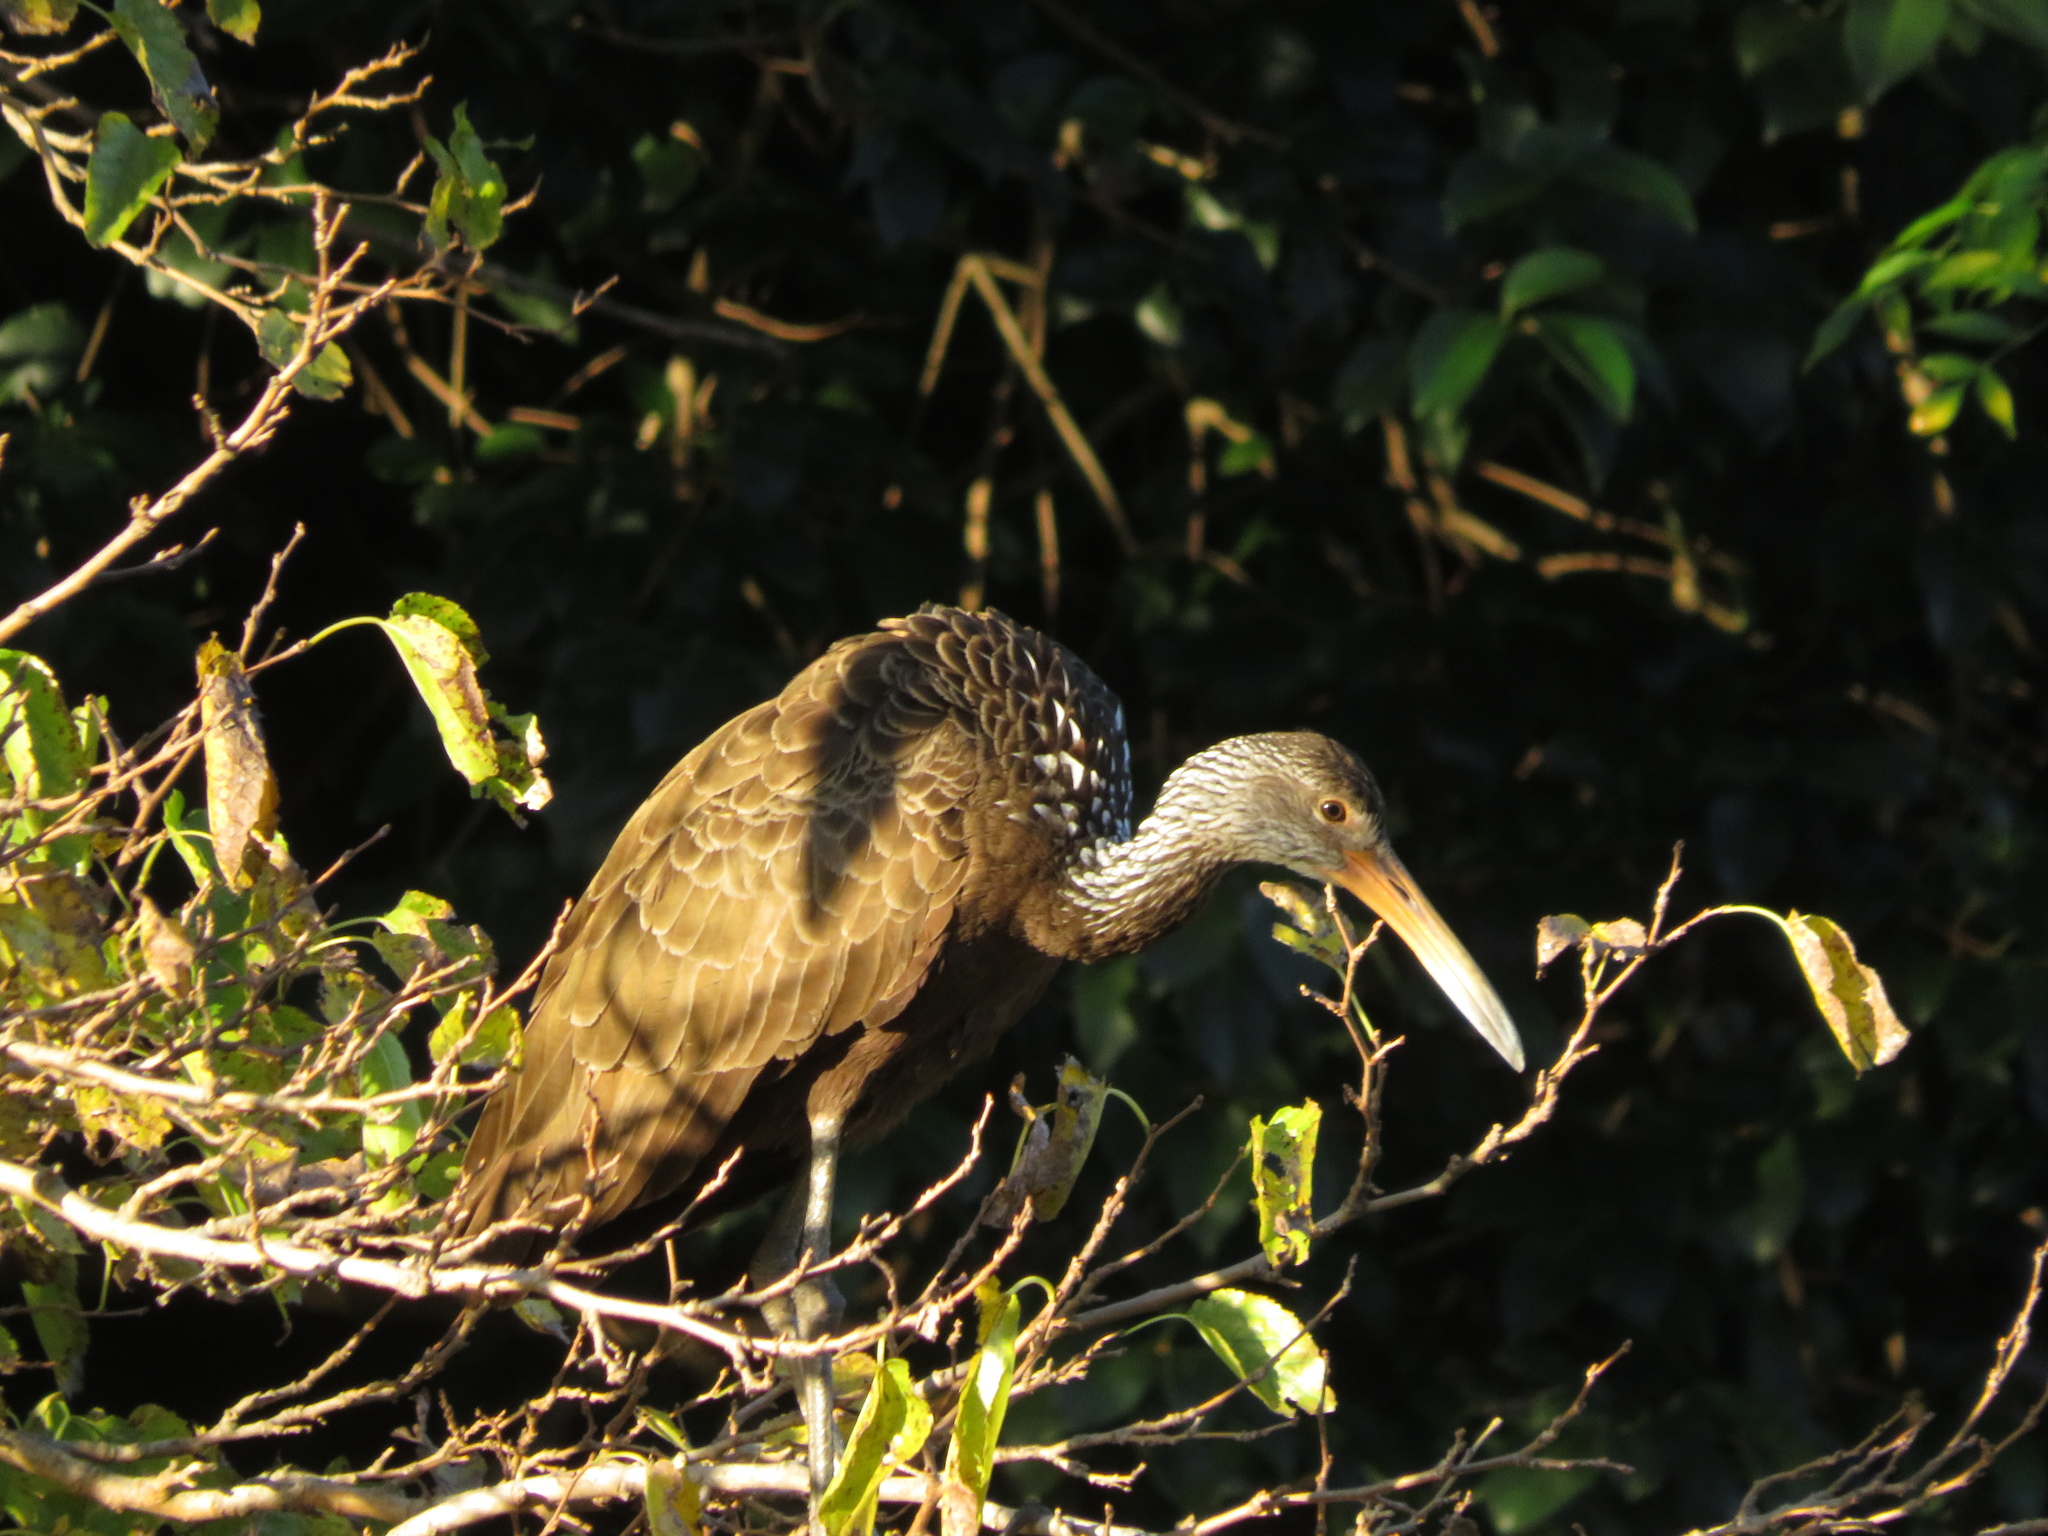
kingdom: Animalia
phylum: Chordata
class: Aves
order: Gruiformes
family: Aramidae
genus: Aramus
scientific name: Aramus guarauna
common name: Limpkin
